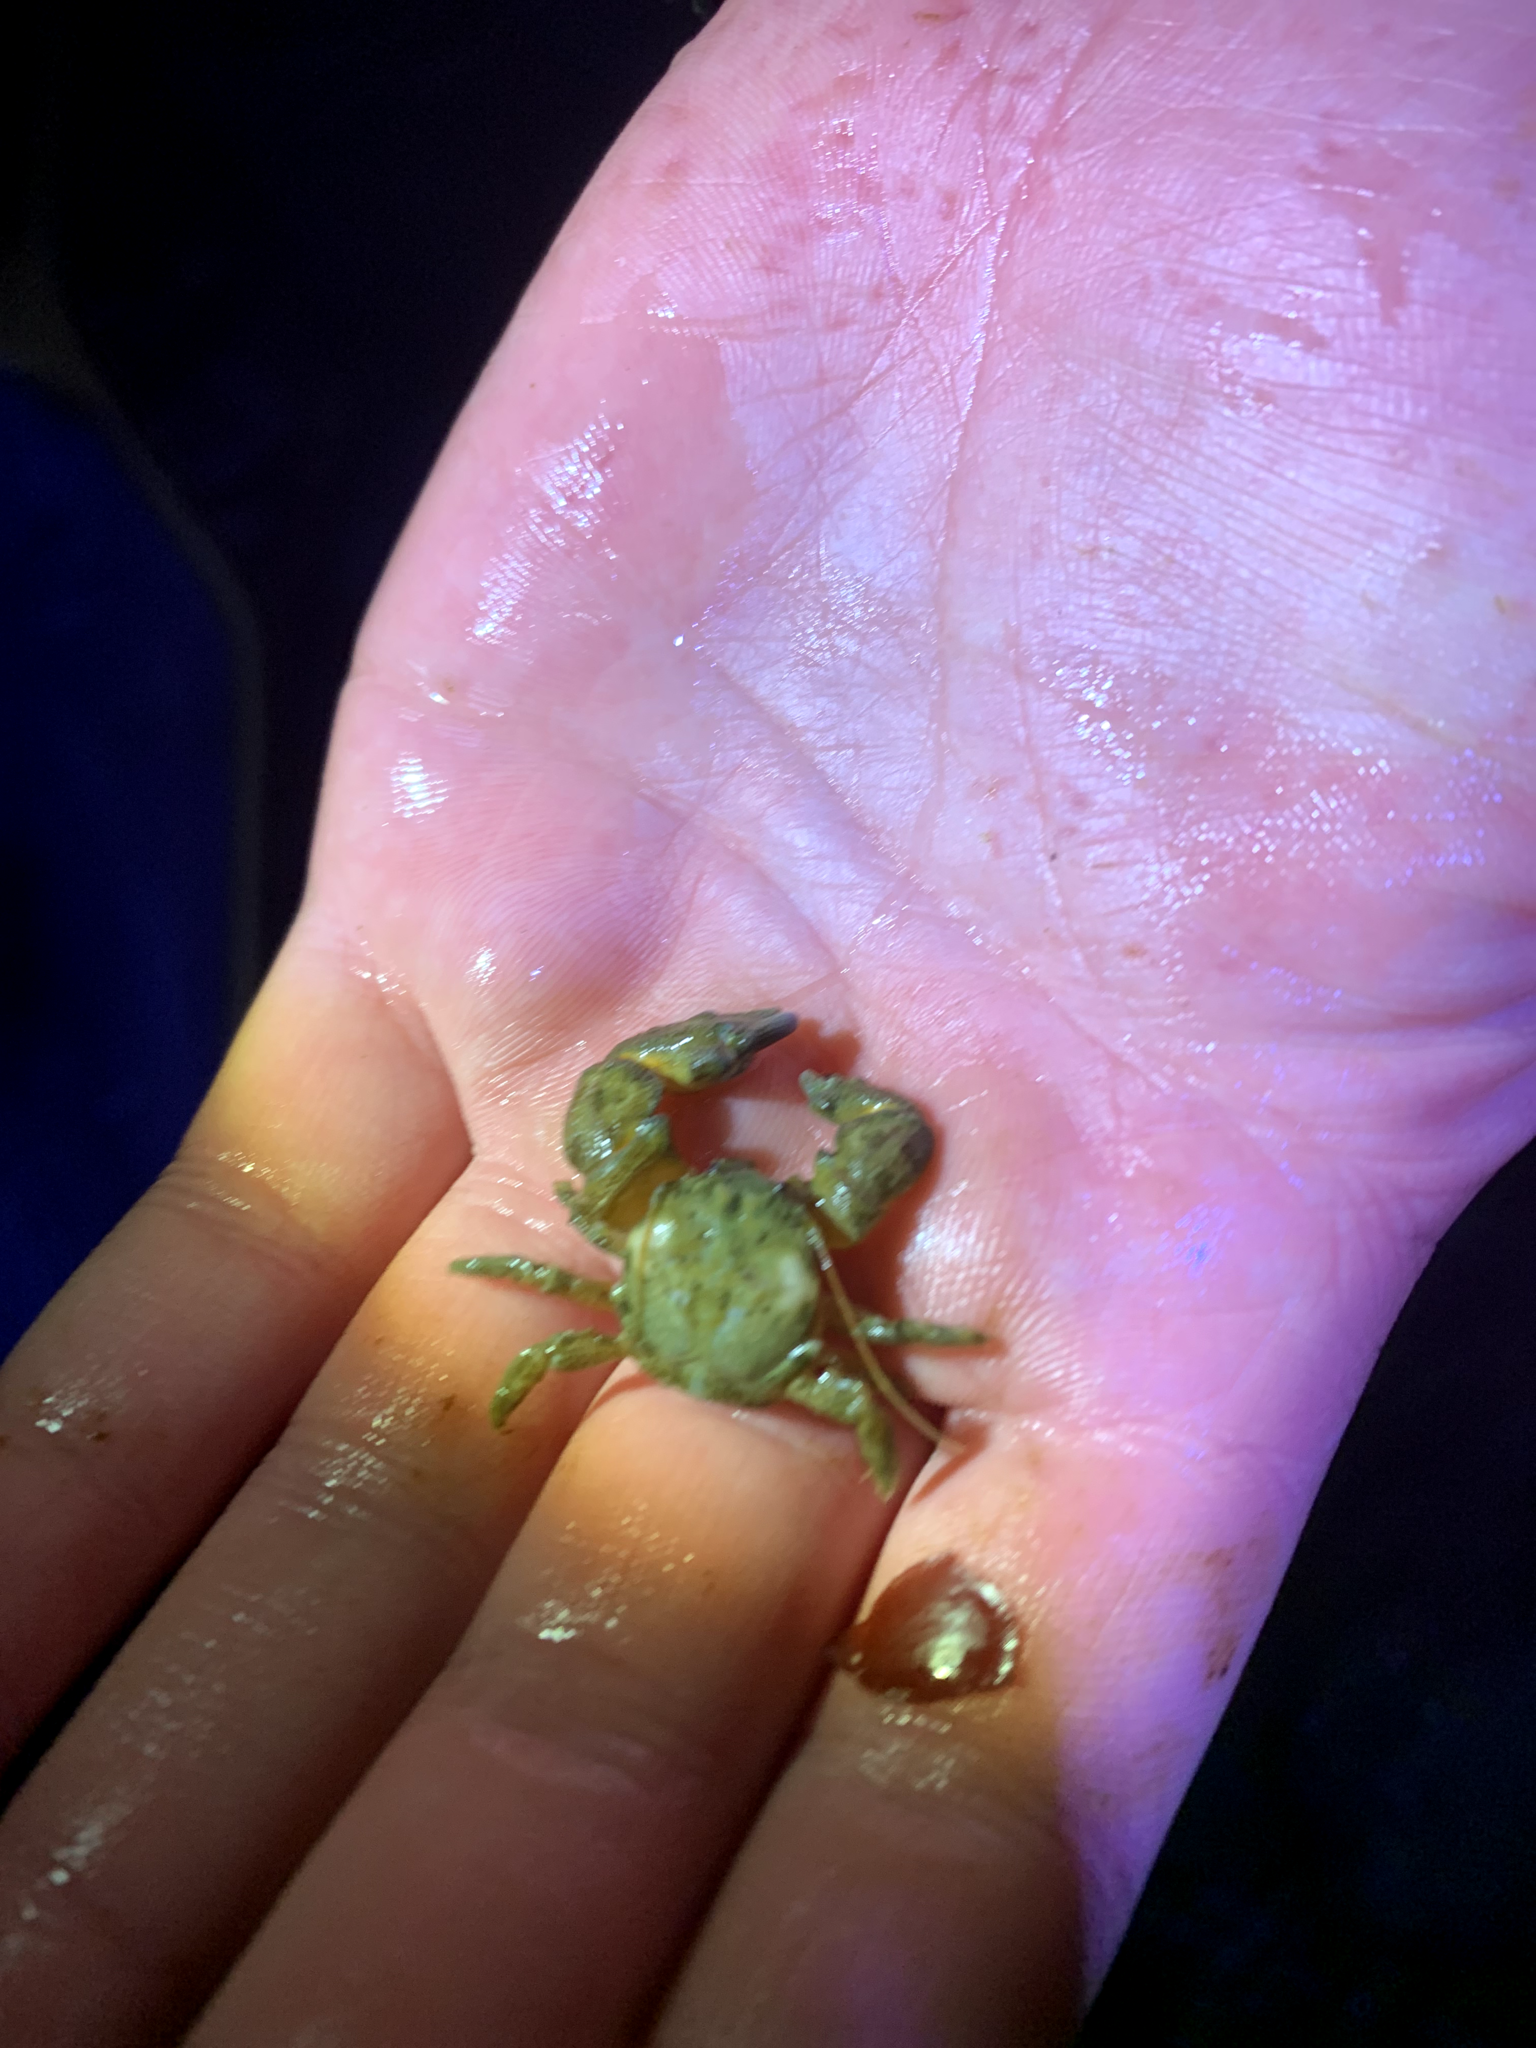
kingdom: Animalia
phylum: Arthropoda
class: Malacostraca
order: Decapoda
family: Porcellanidae
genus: Pachycheles
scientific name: Pachycheles rudis
